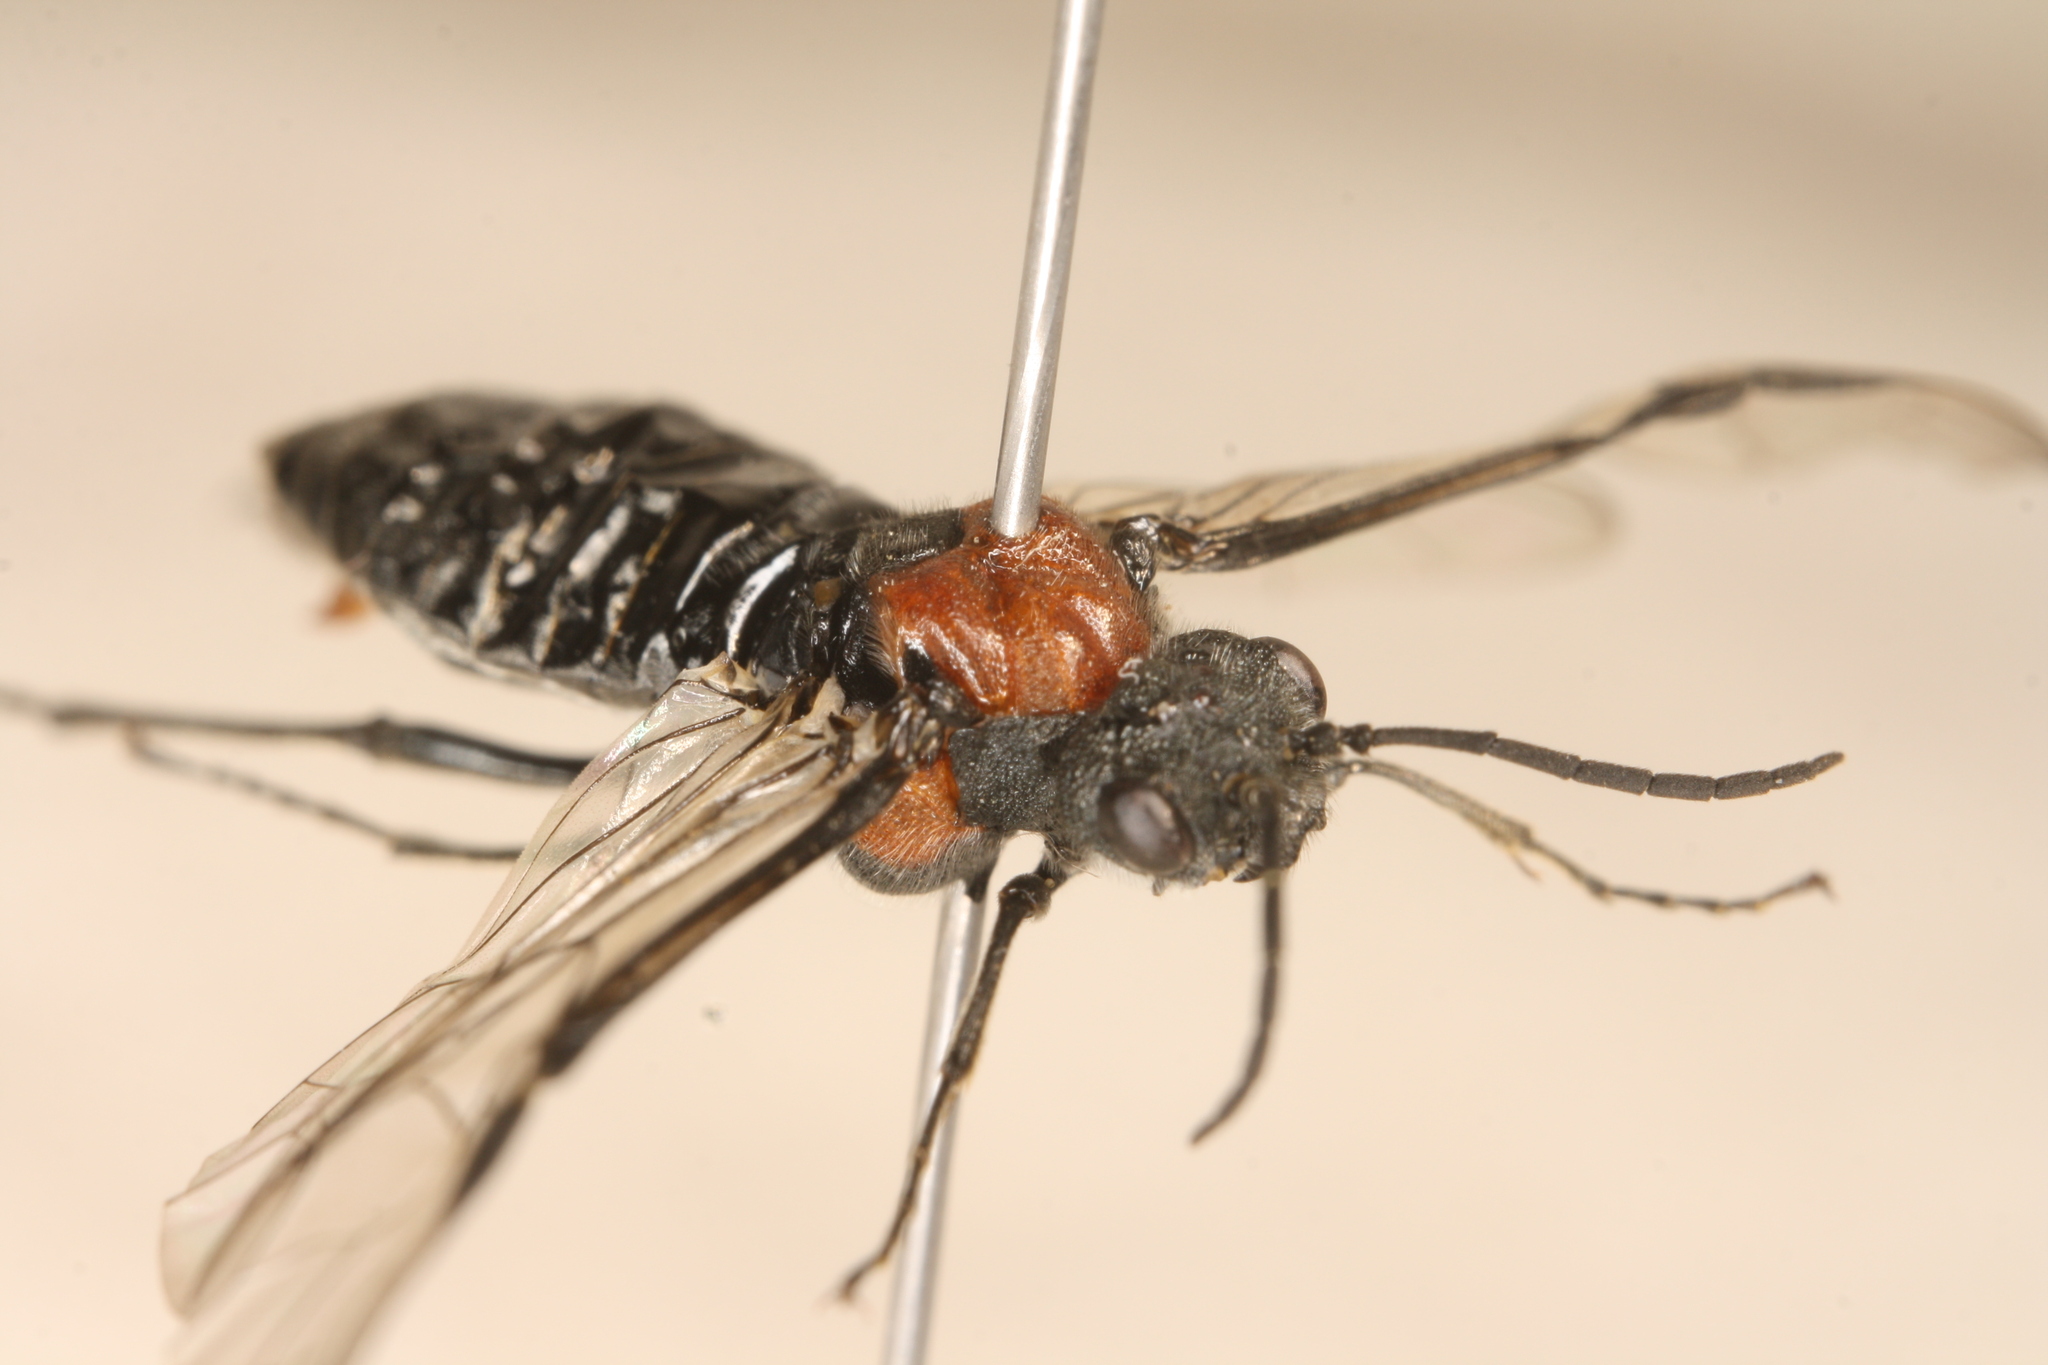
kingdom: Animalia
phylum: Arthropoda
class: Insecta
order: Hymenoptera
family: Tenthredinidae
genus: Dolerus
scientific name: Dolerus blanki
